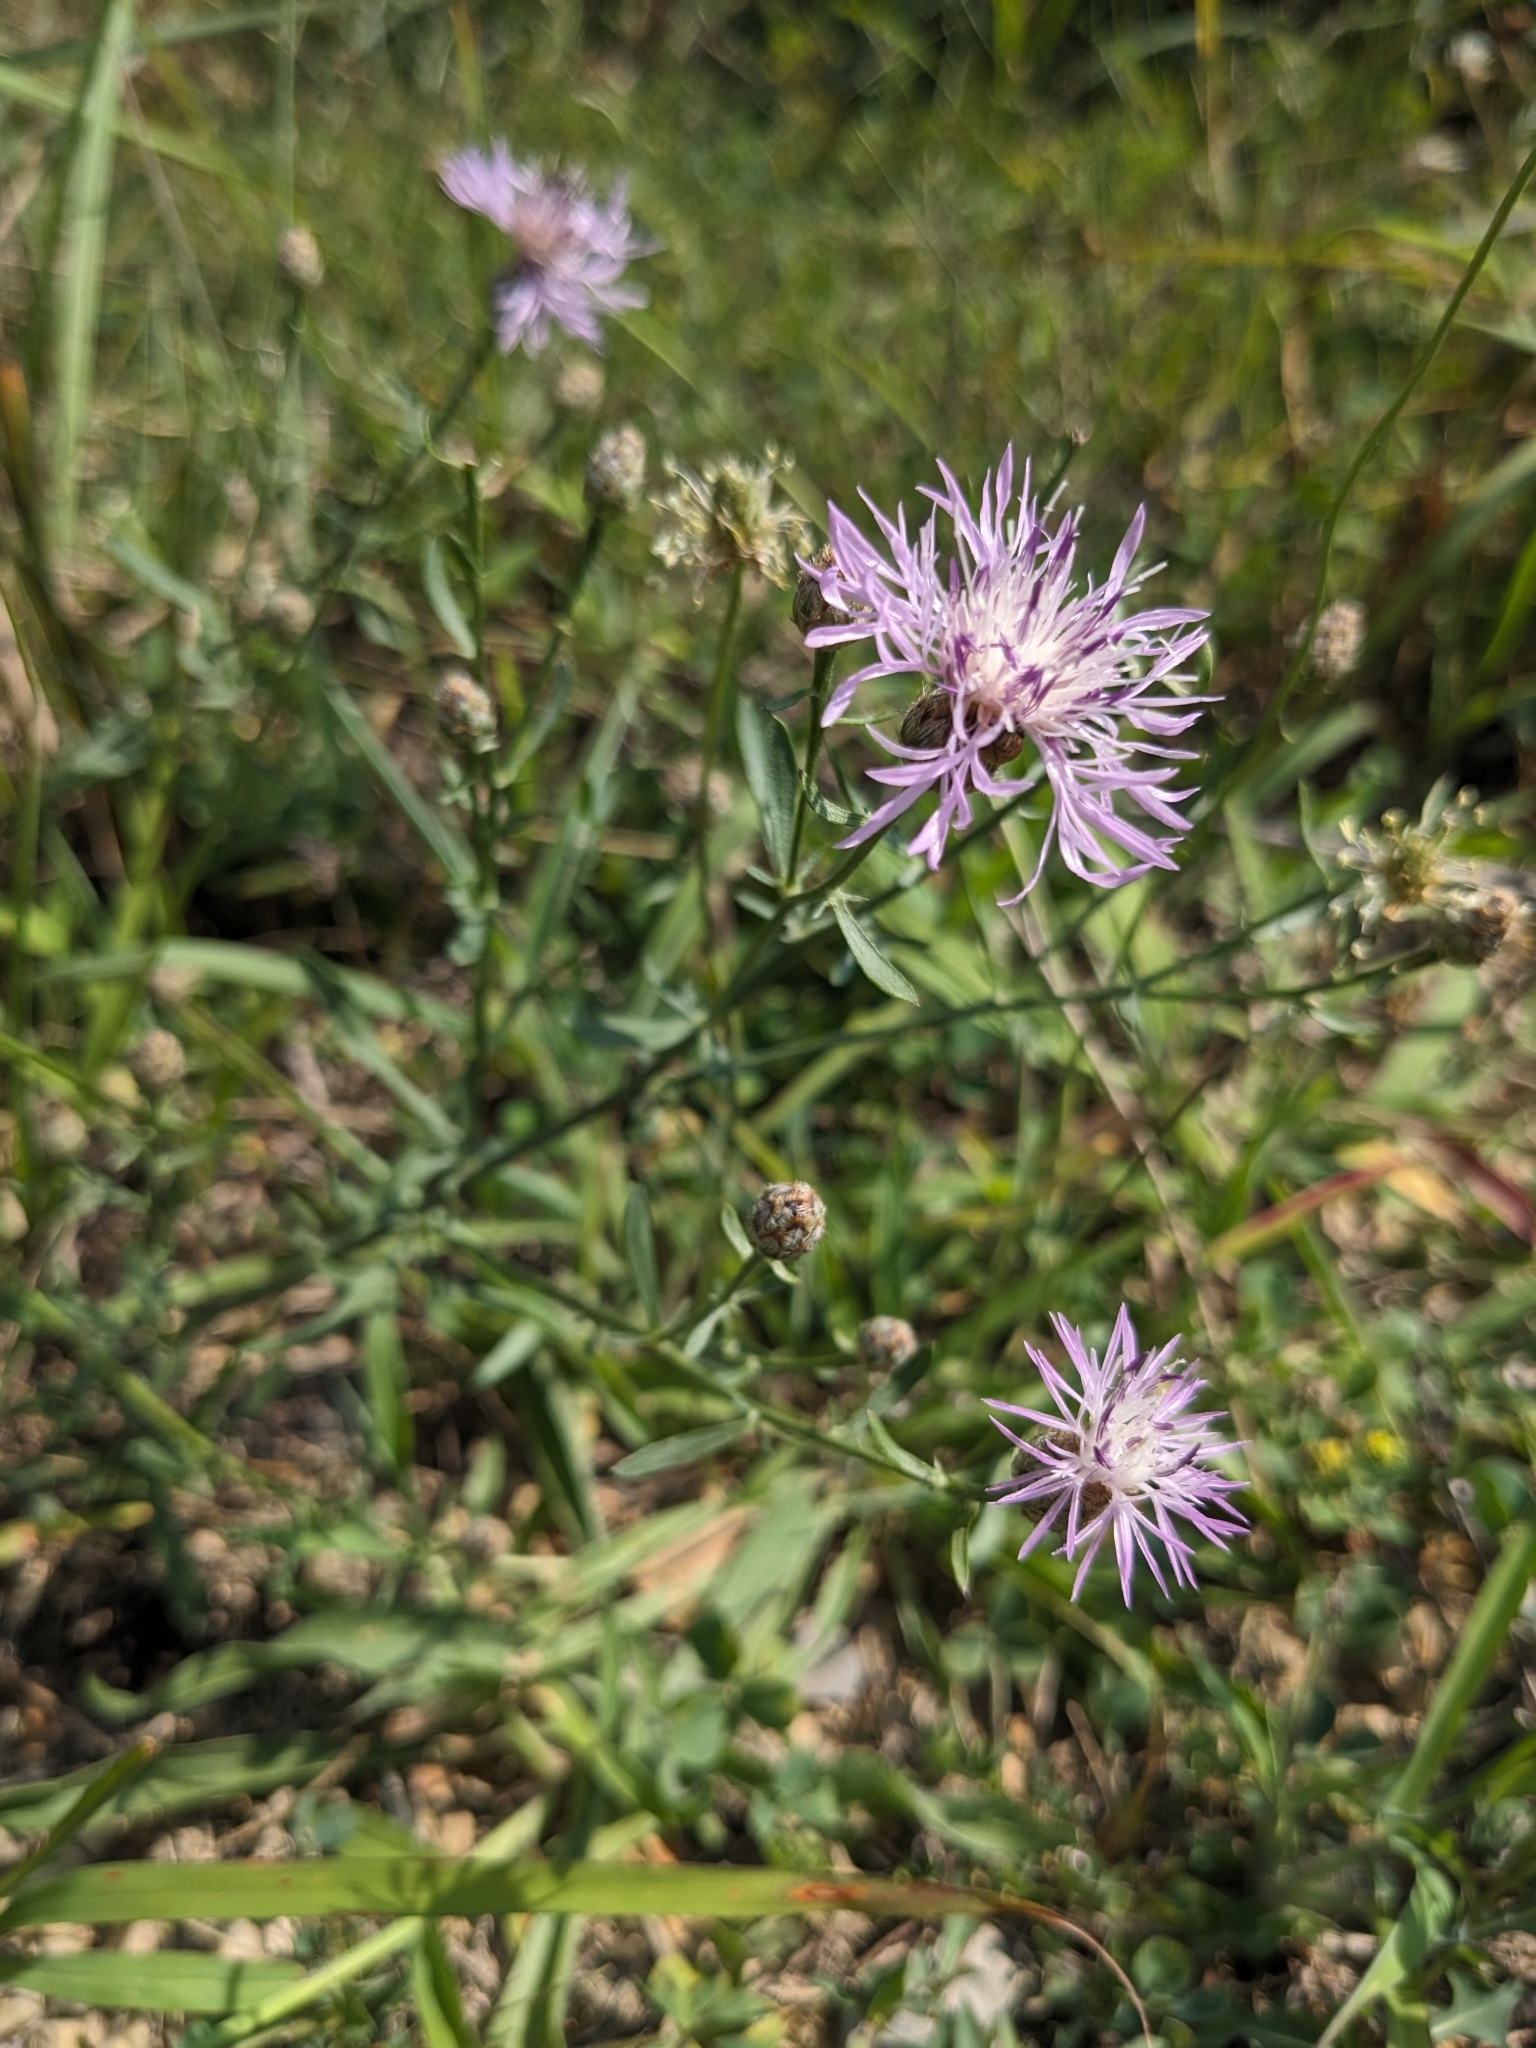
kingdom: Plantae
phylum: Tracheophyta
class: Magnoliopsida
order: Asterales
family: Asteraceae
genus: Centaurea
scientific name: Centaurea stoebe
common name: Spotted knapweed
